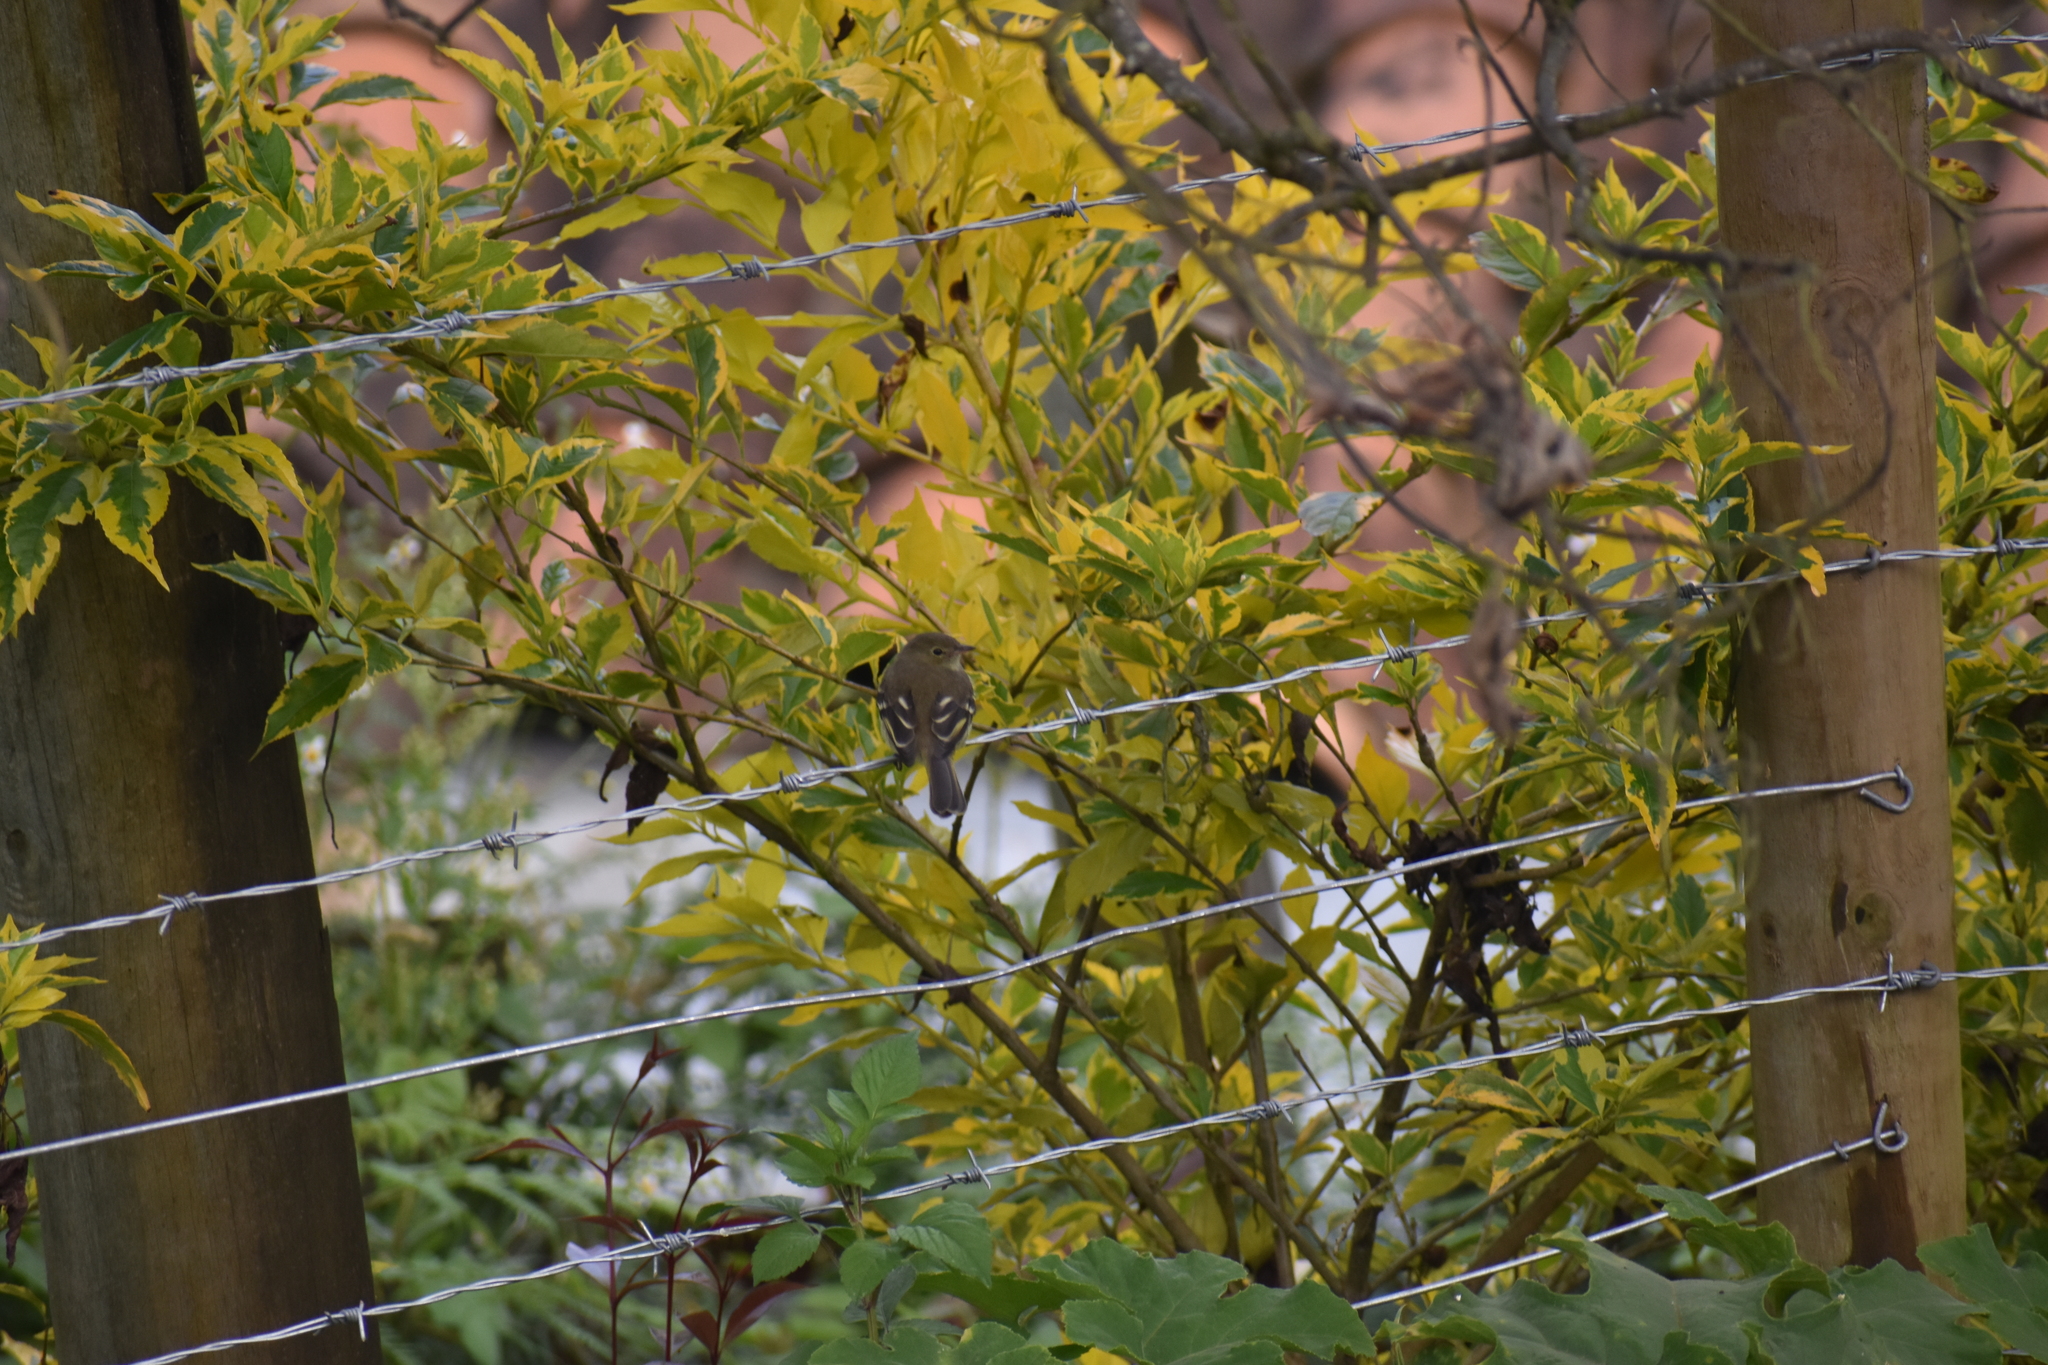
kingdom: Animalia
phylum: Chordata
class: Aves
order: Passeriformes
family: Tyrannidae
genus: Elaenia
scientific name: Elaenia frantzii
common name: Mountain elaenia
